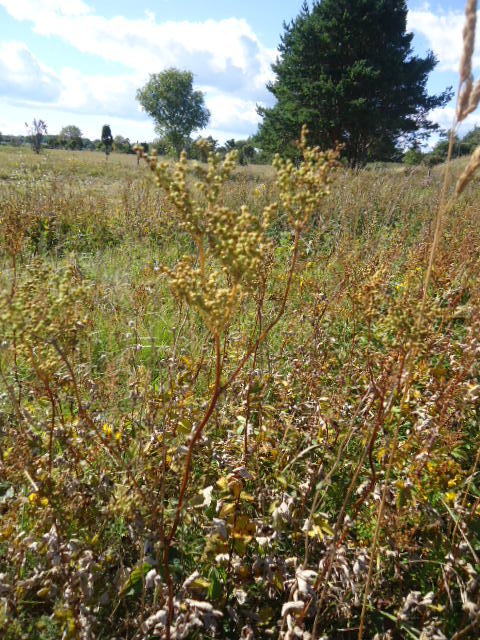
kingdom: Plantae
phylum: Tracheophyta
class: Magnoliopsida
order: Rosales
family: Rosaceae
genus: Filipendula
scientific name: Filipendula ulmaria
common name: Meadowsweet
